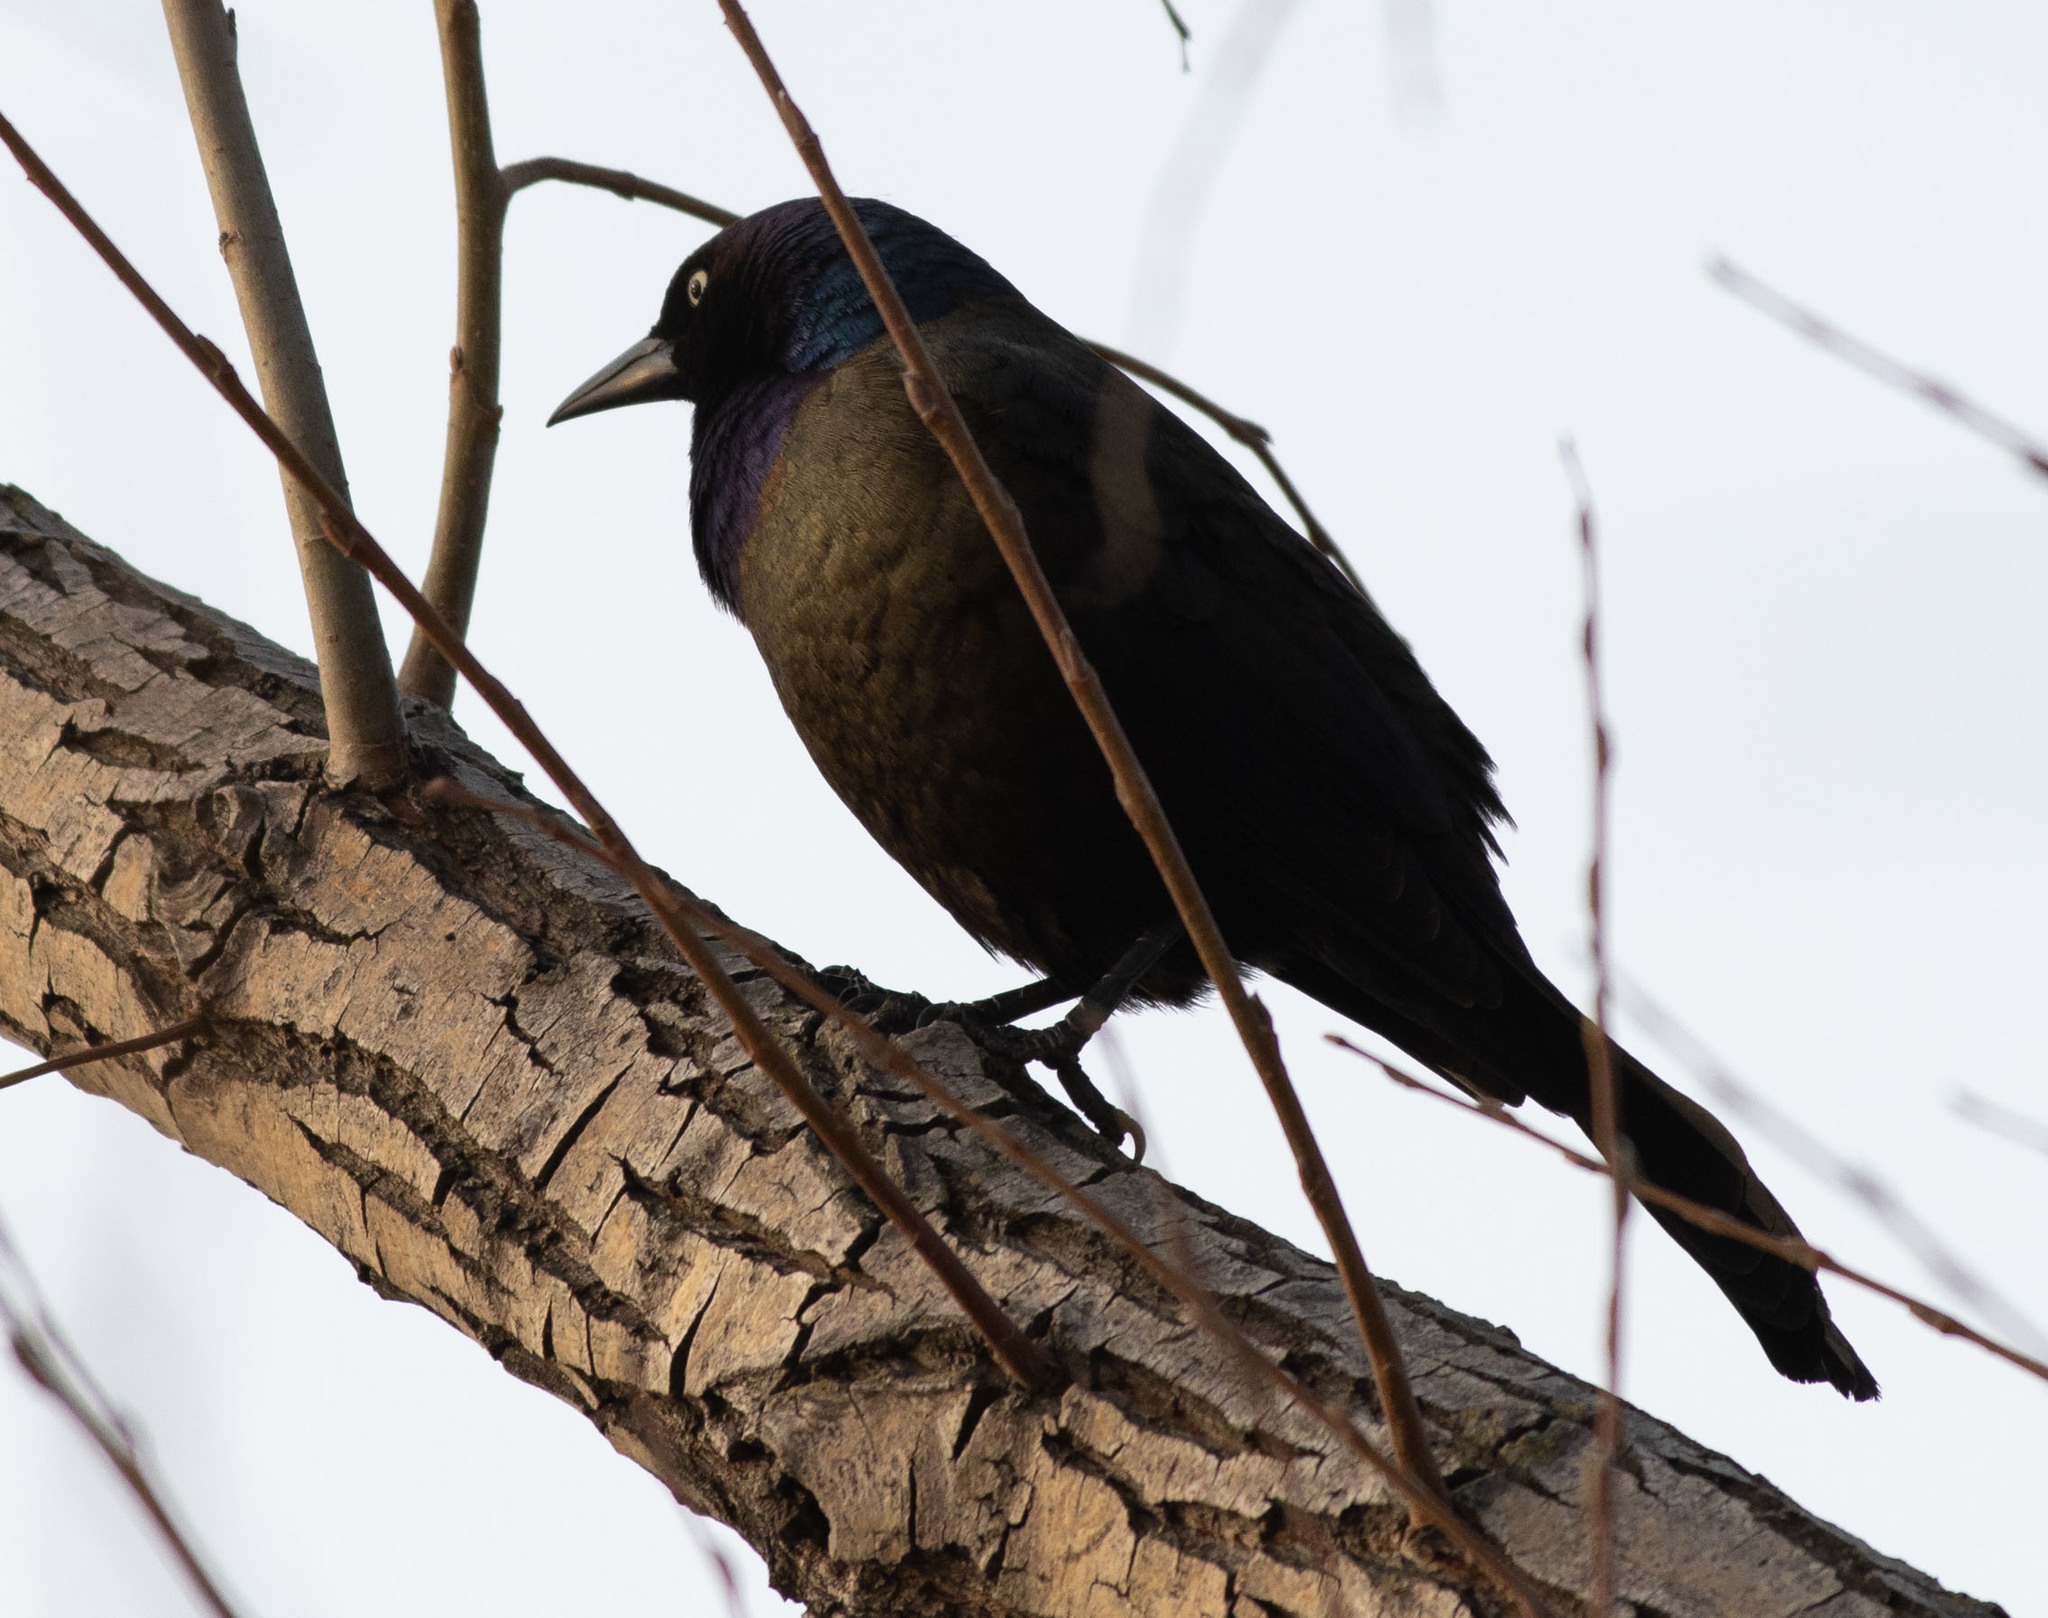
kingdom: Animalia
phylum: Chordata
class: Aves
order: Passeriformes
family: Icteridae
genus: Quiscalus
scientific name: Quiscalus quiscula
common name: Common grackle
